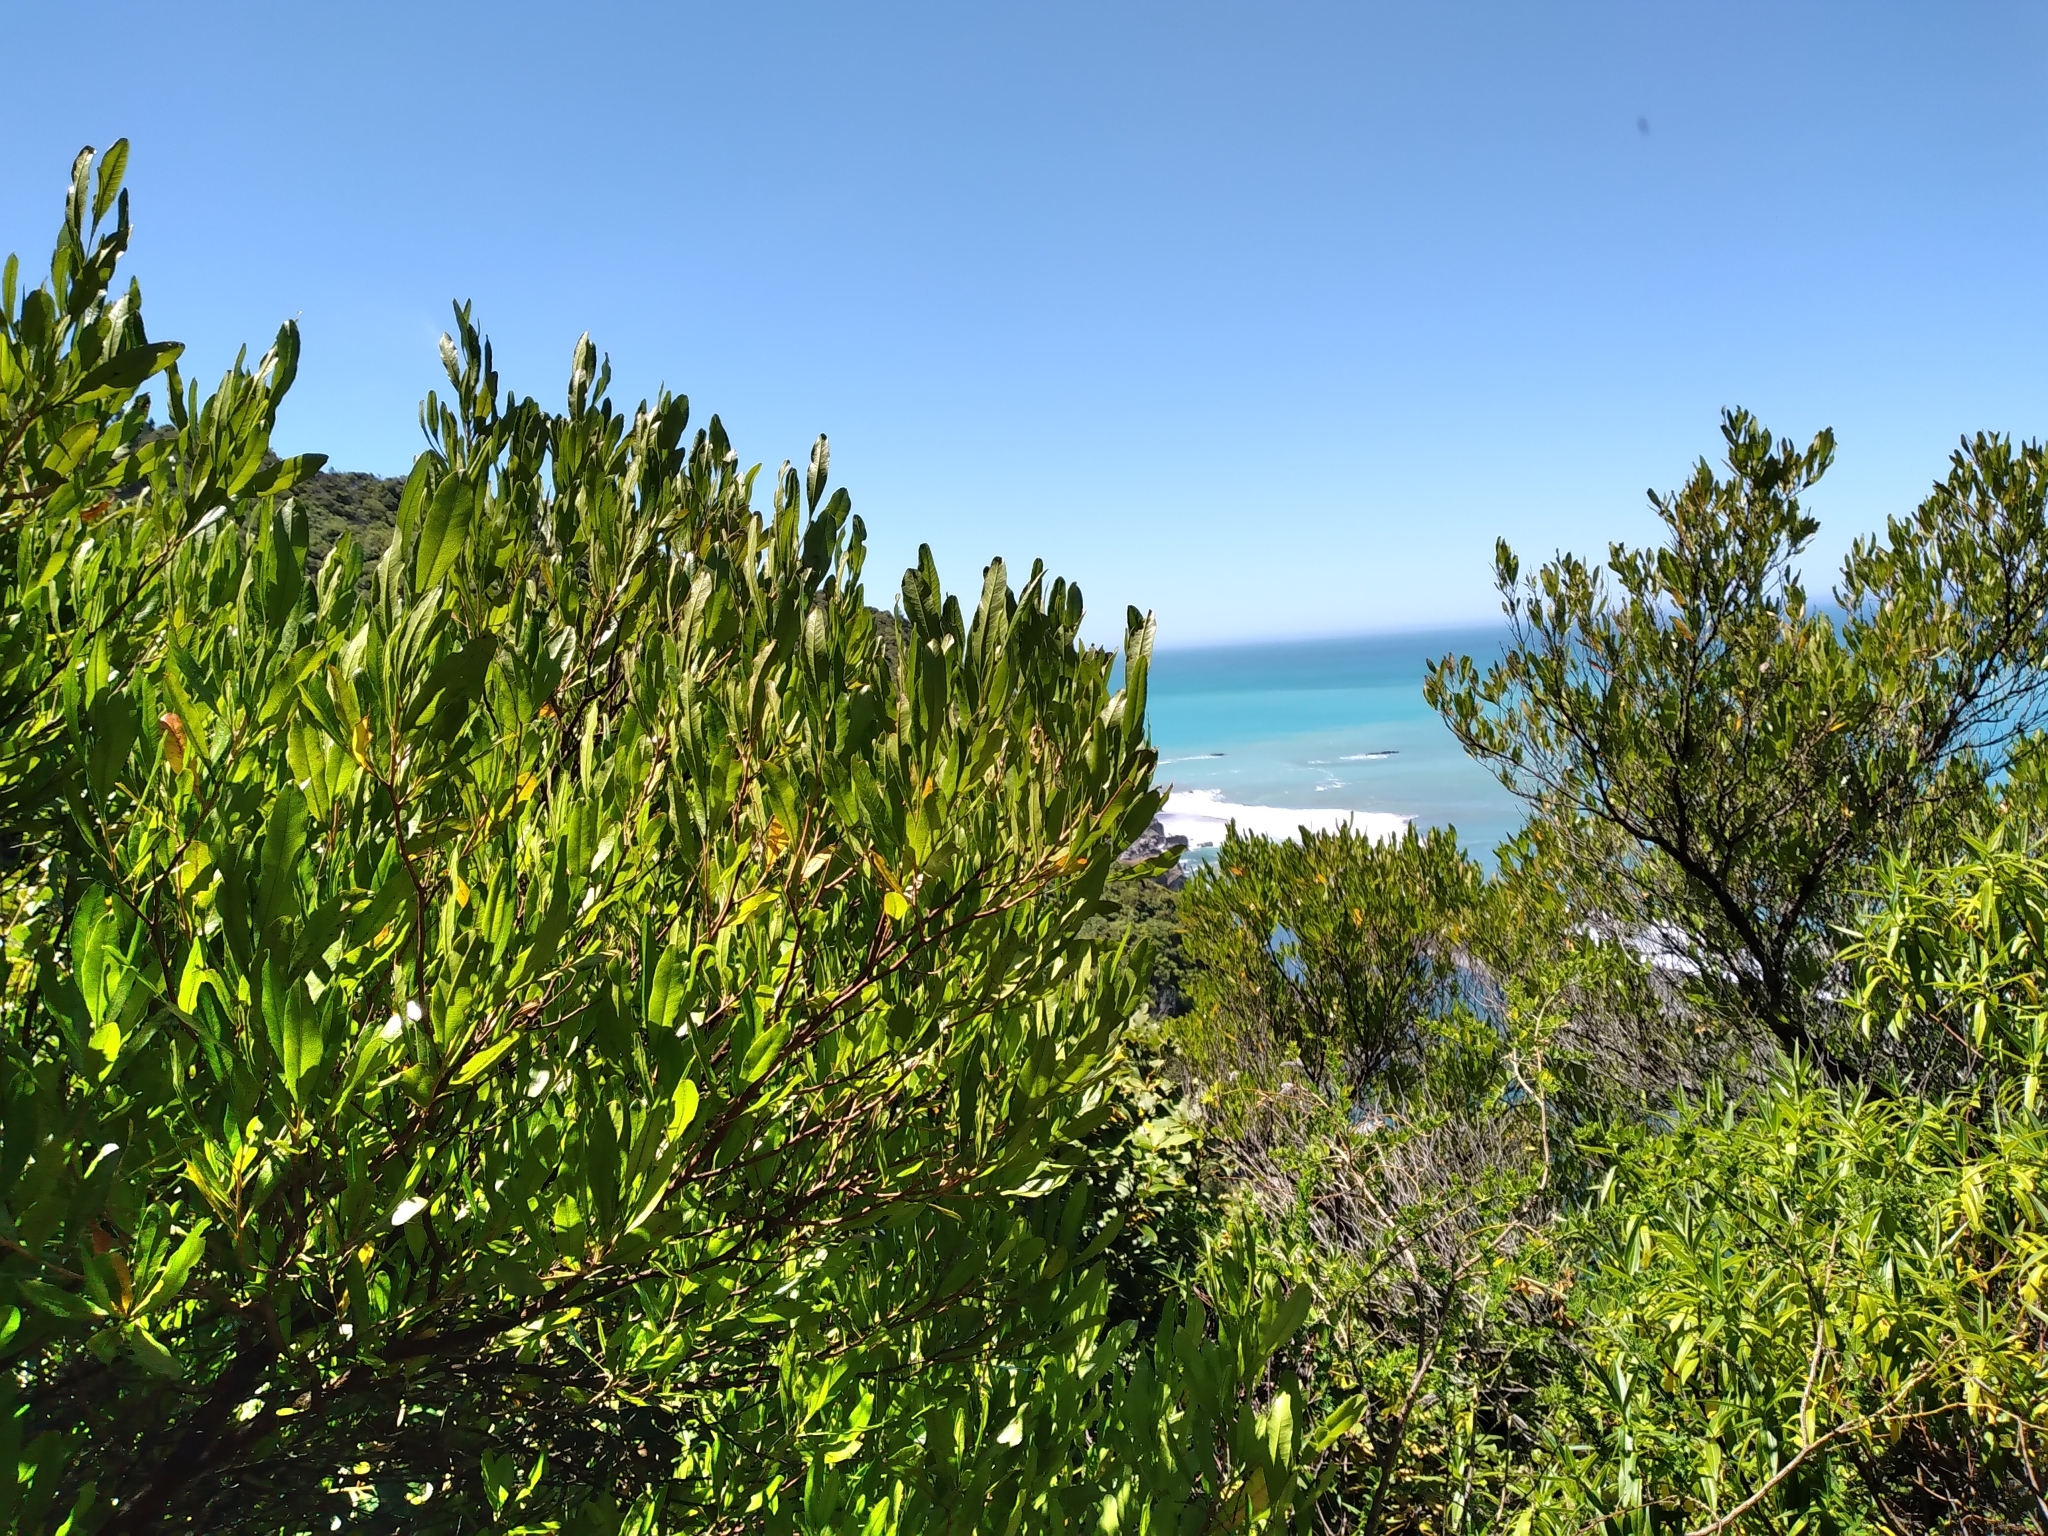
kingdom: Plantae
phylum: Tracheophyta
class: Magnoliopsida
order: Sapindales
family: Sapindaceae
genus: Dodonaea
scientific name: Dodonaea viscosa
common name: Hopbush
